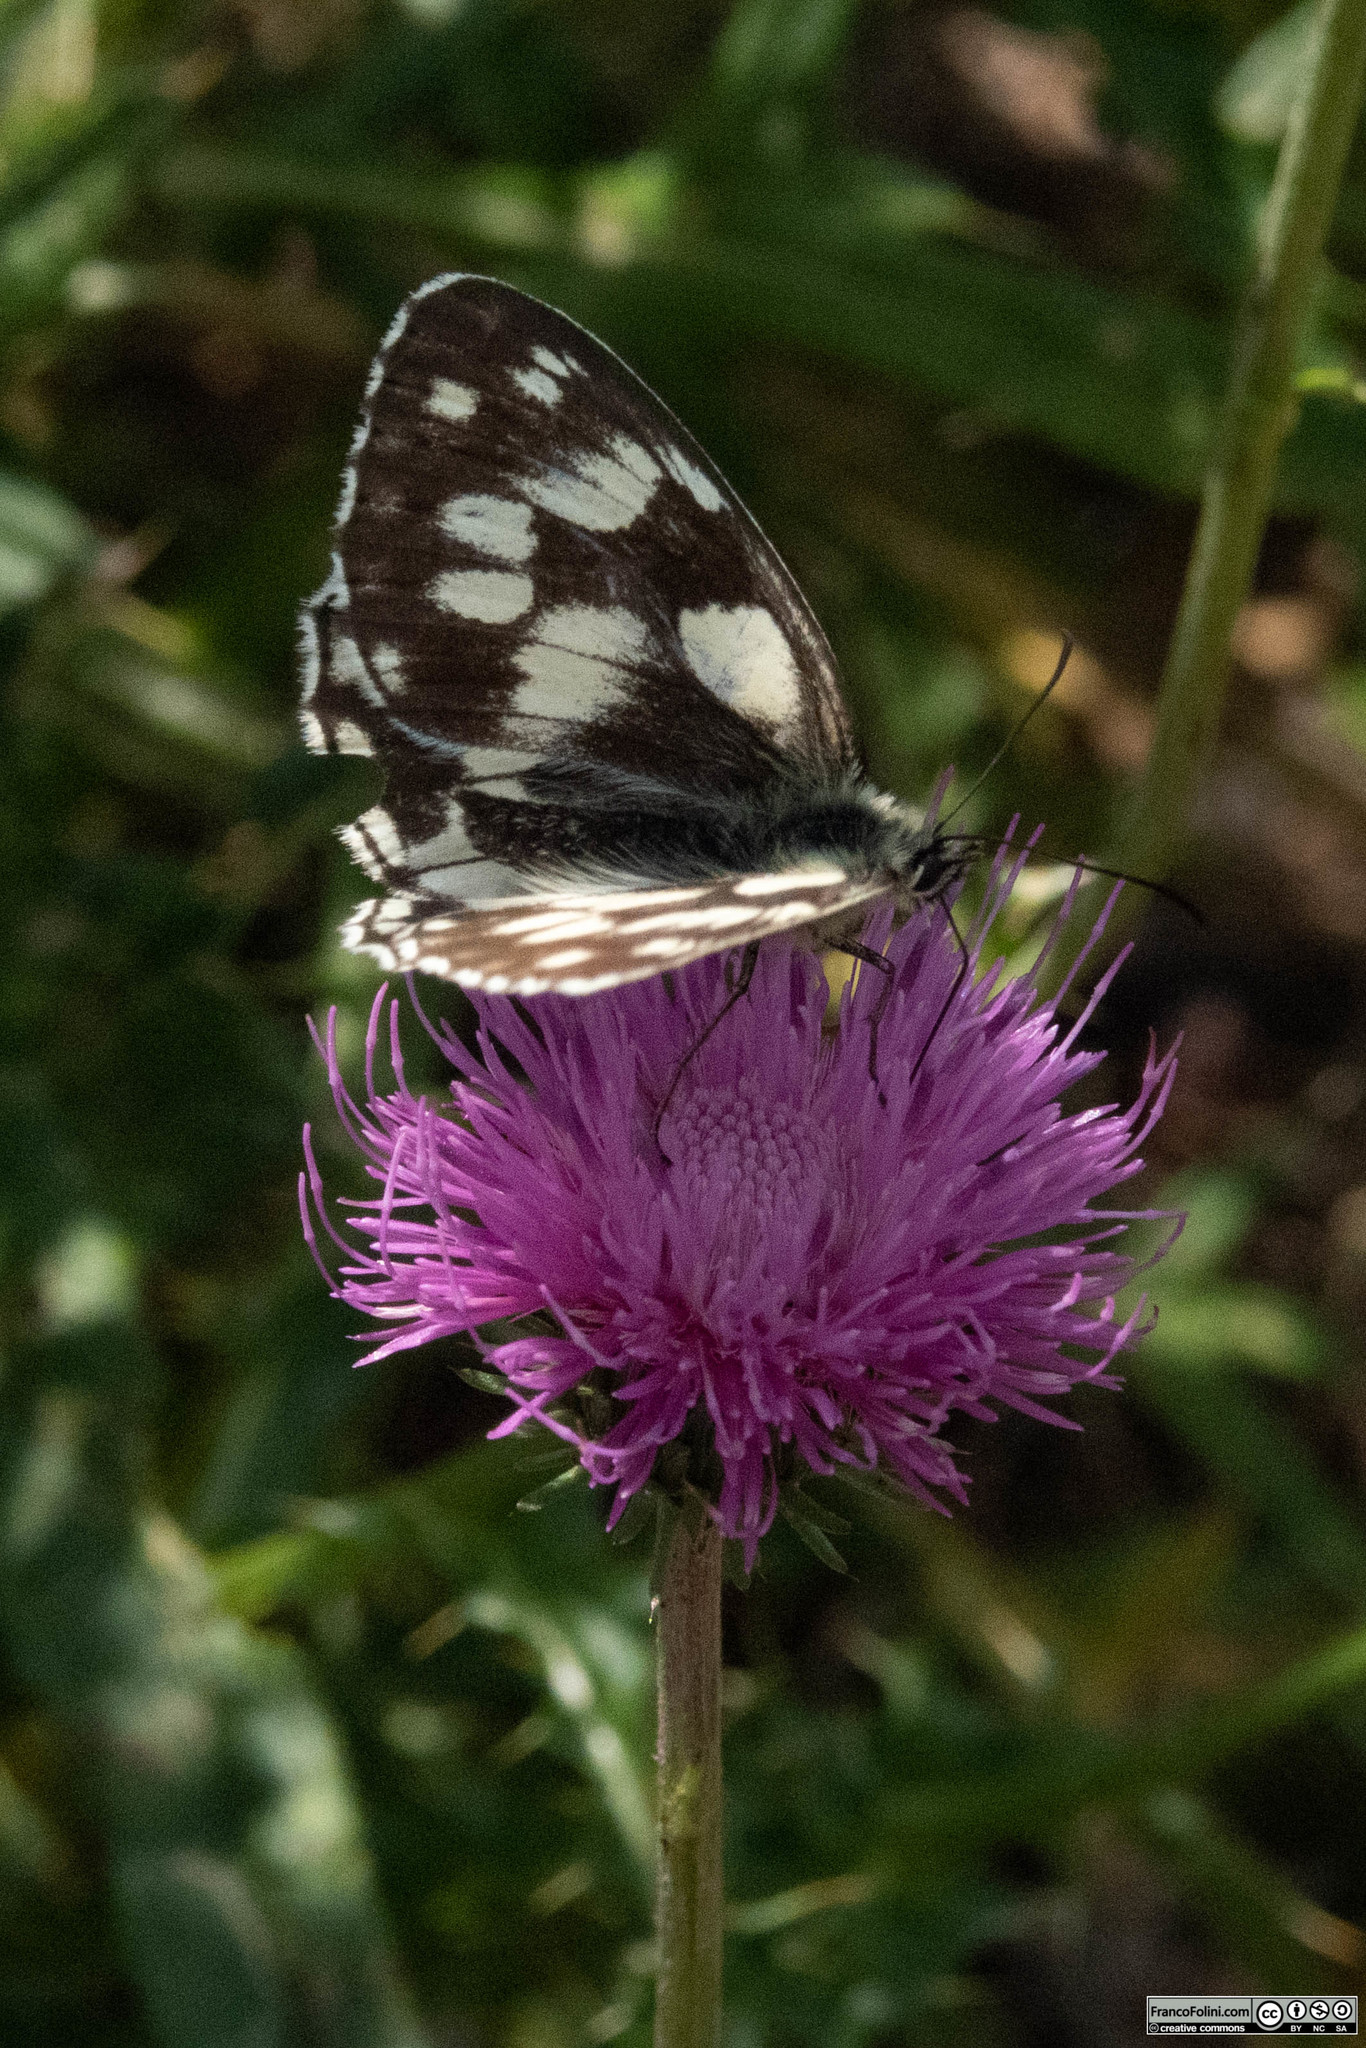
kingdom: Animalia
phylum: Arthropoda
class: Insecta
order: Lepidoptera
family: Nymphalidae
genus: Melanargia
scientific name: Melanargia galathea
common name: Marbled white
